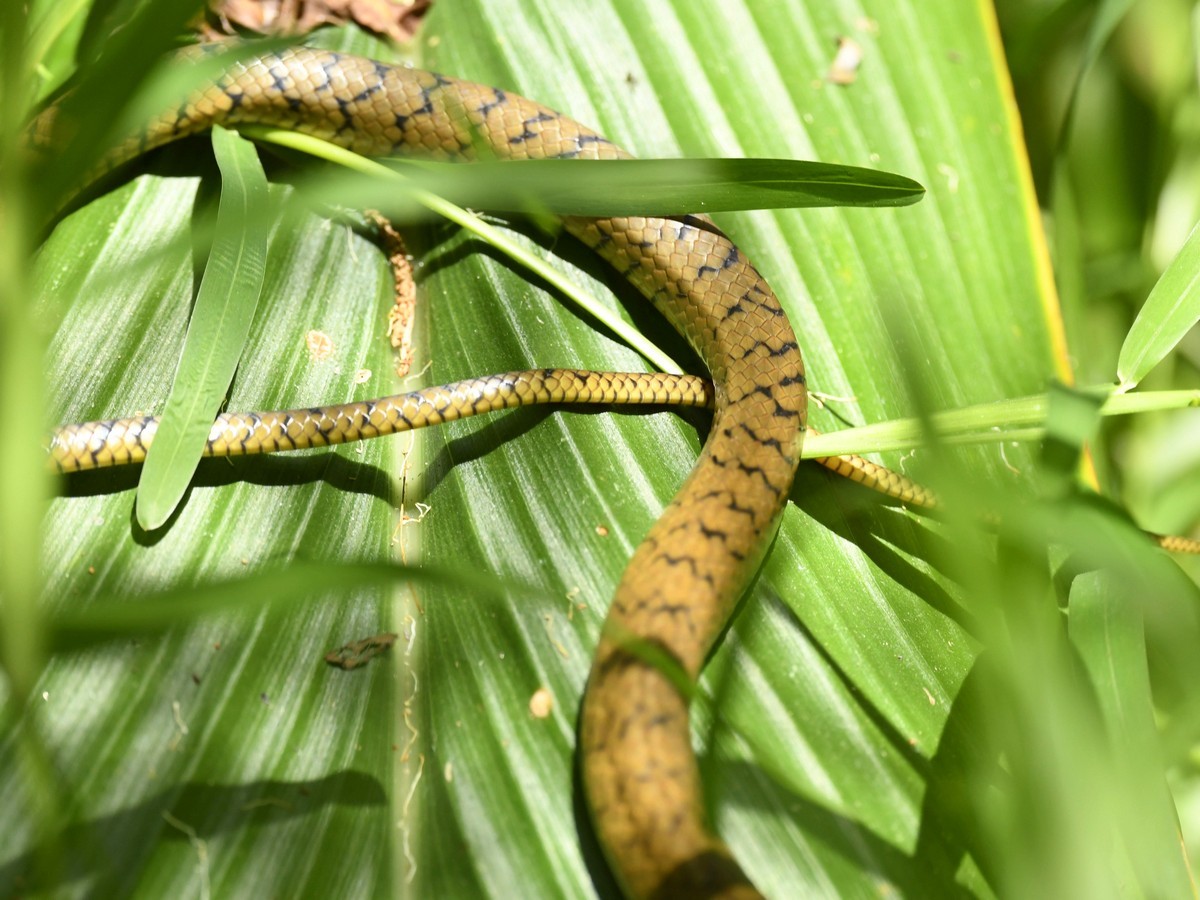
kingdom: Animalia
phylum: Chordata
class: Squamata
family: Colubridae
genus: Ptyas
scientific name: Ptyas mucosa
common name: Oriental ratsnake
